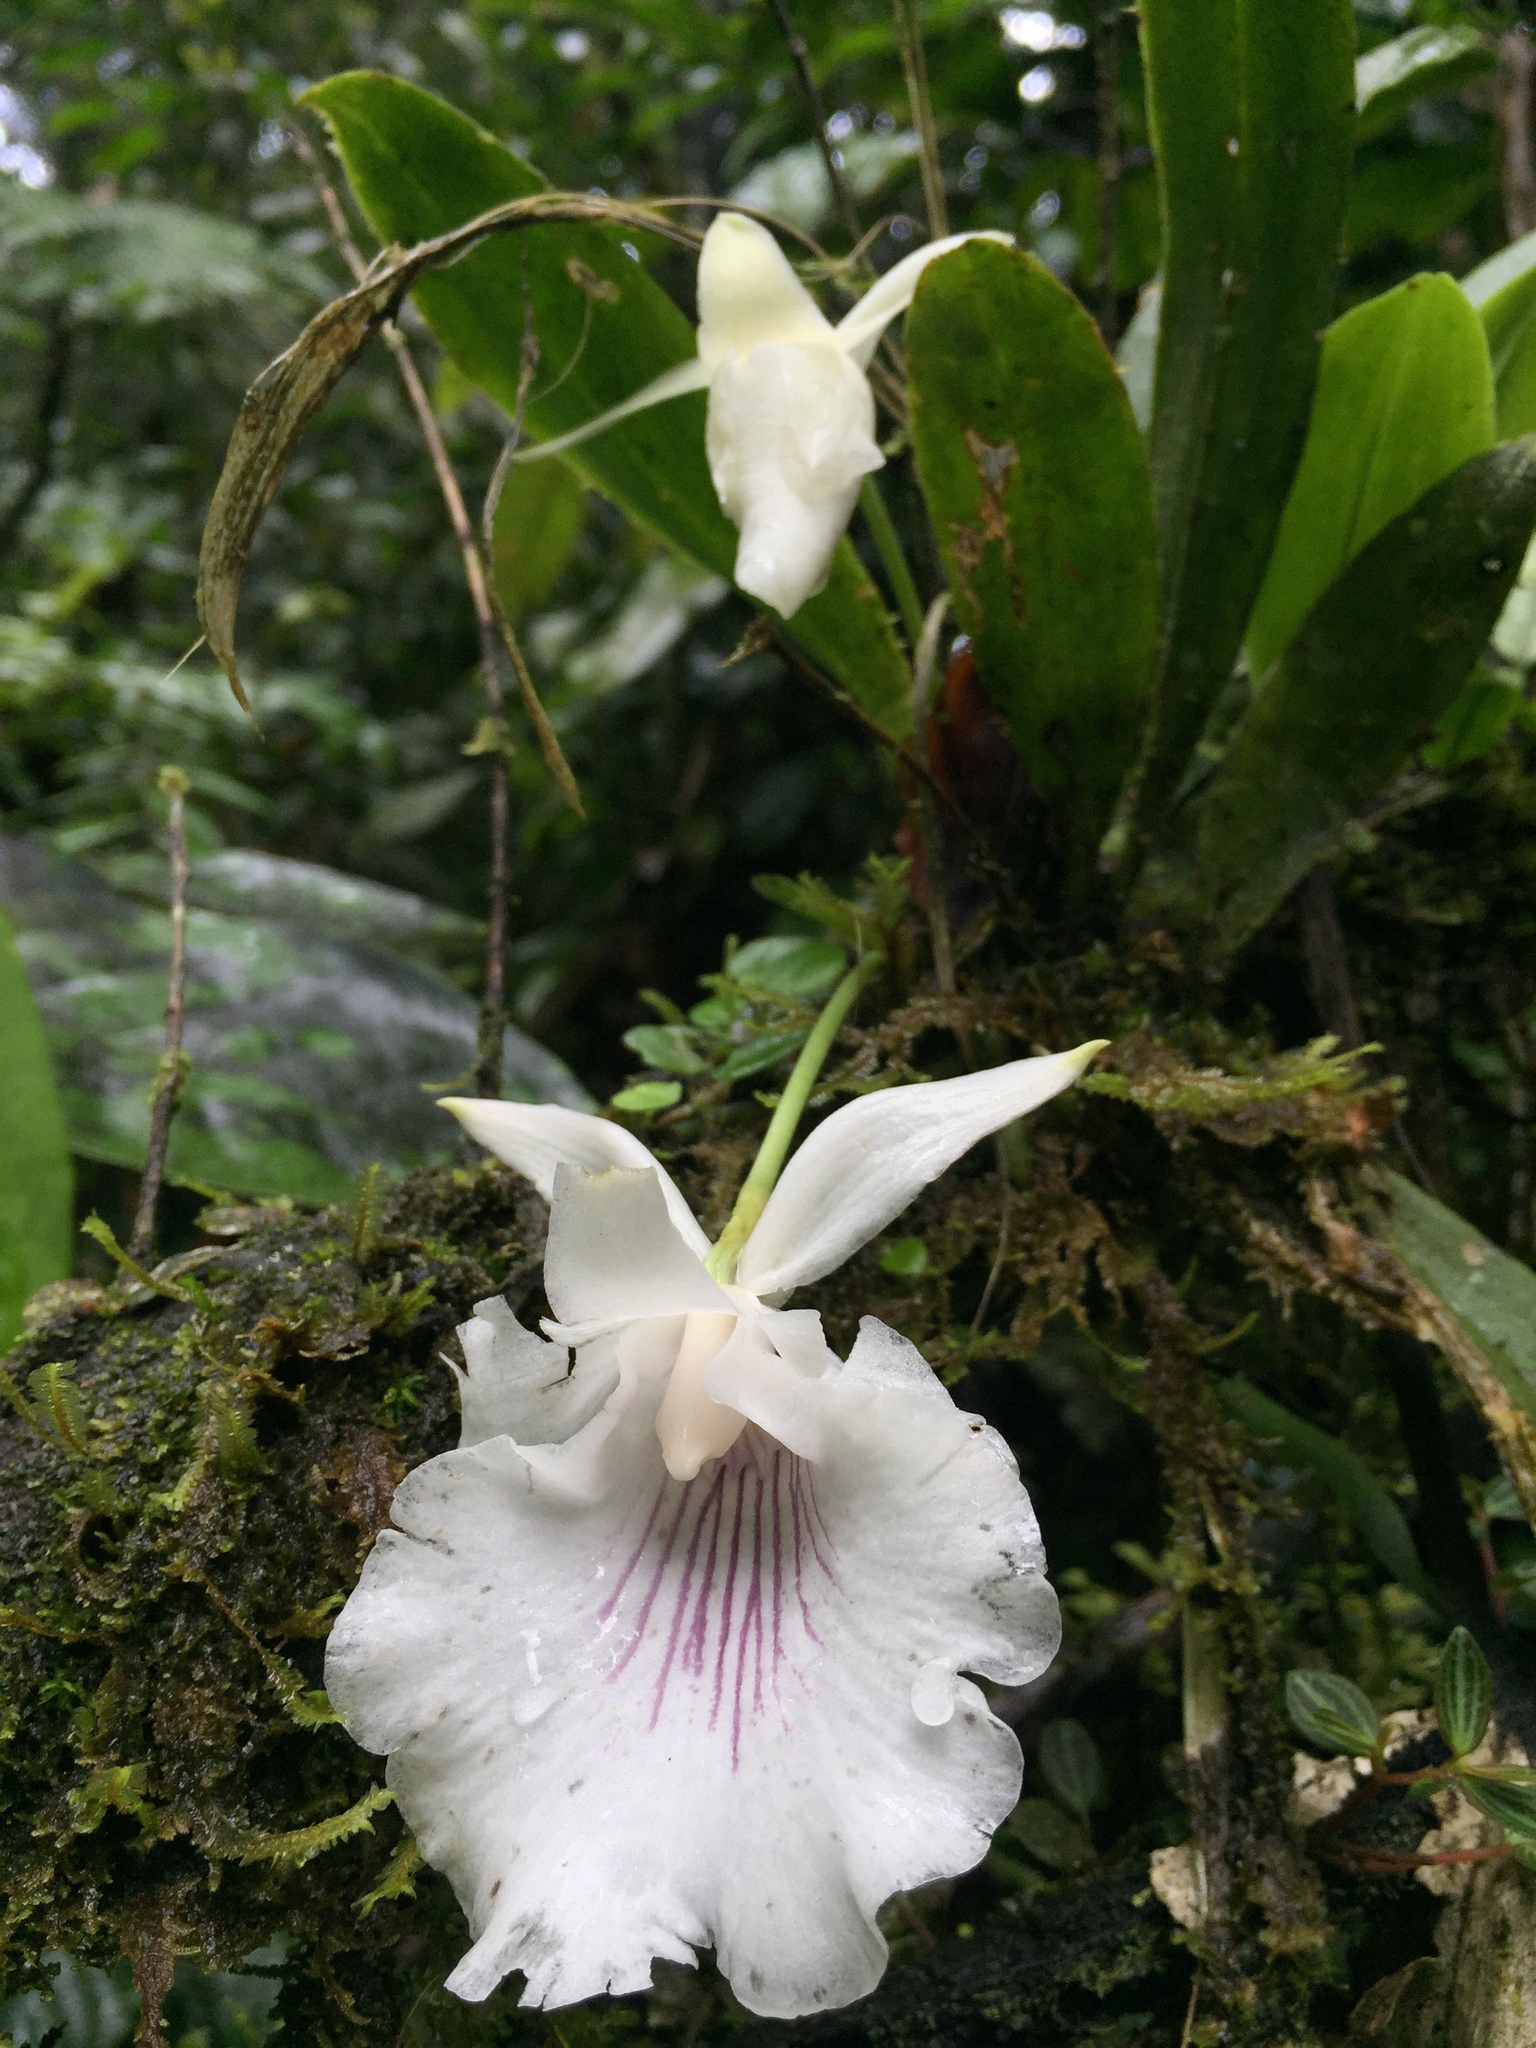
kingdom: Plantae
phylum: Tracheophyta
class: Liliopsida
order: Asparagales
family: Orchidaceae
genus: Warczewiczella
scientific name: Warczewiczella amazonica
